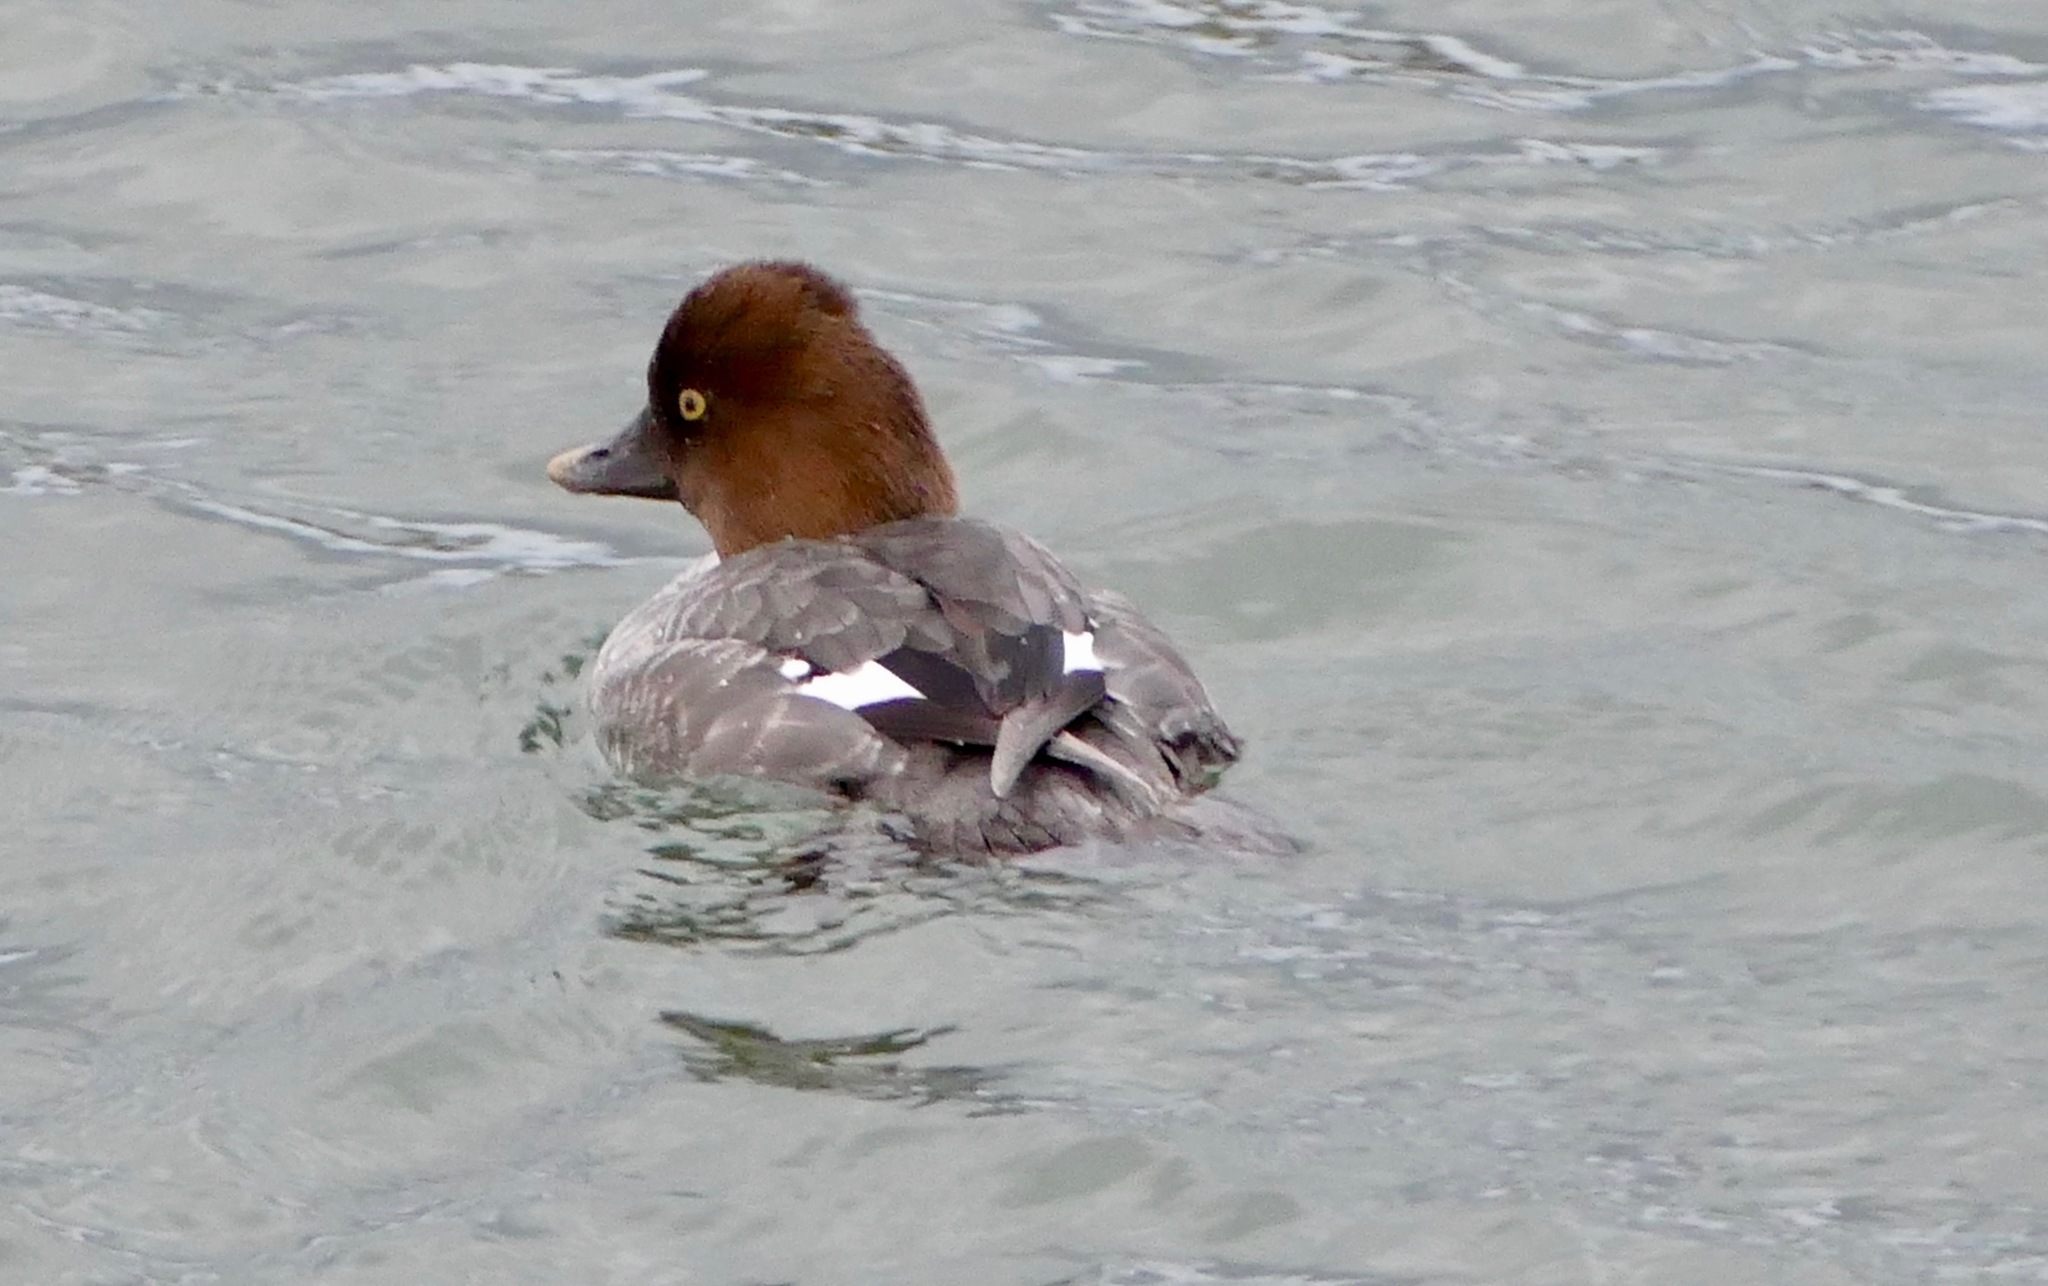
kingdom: Animalia
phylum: Chordata
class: Aves
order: Anseriformes
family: Anatidae
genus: Bucephala
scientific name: Bucephala clangula
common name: Common goldeneye
